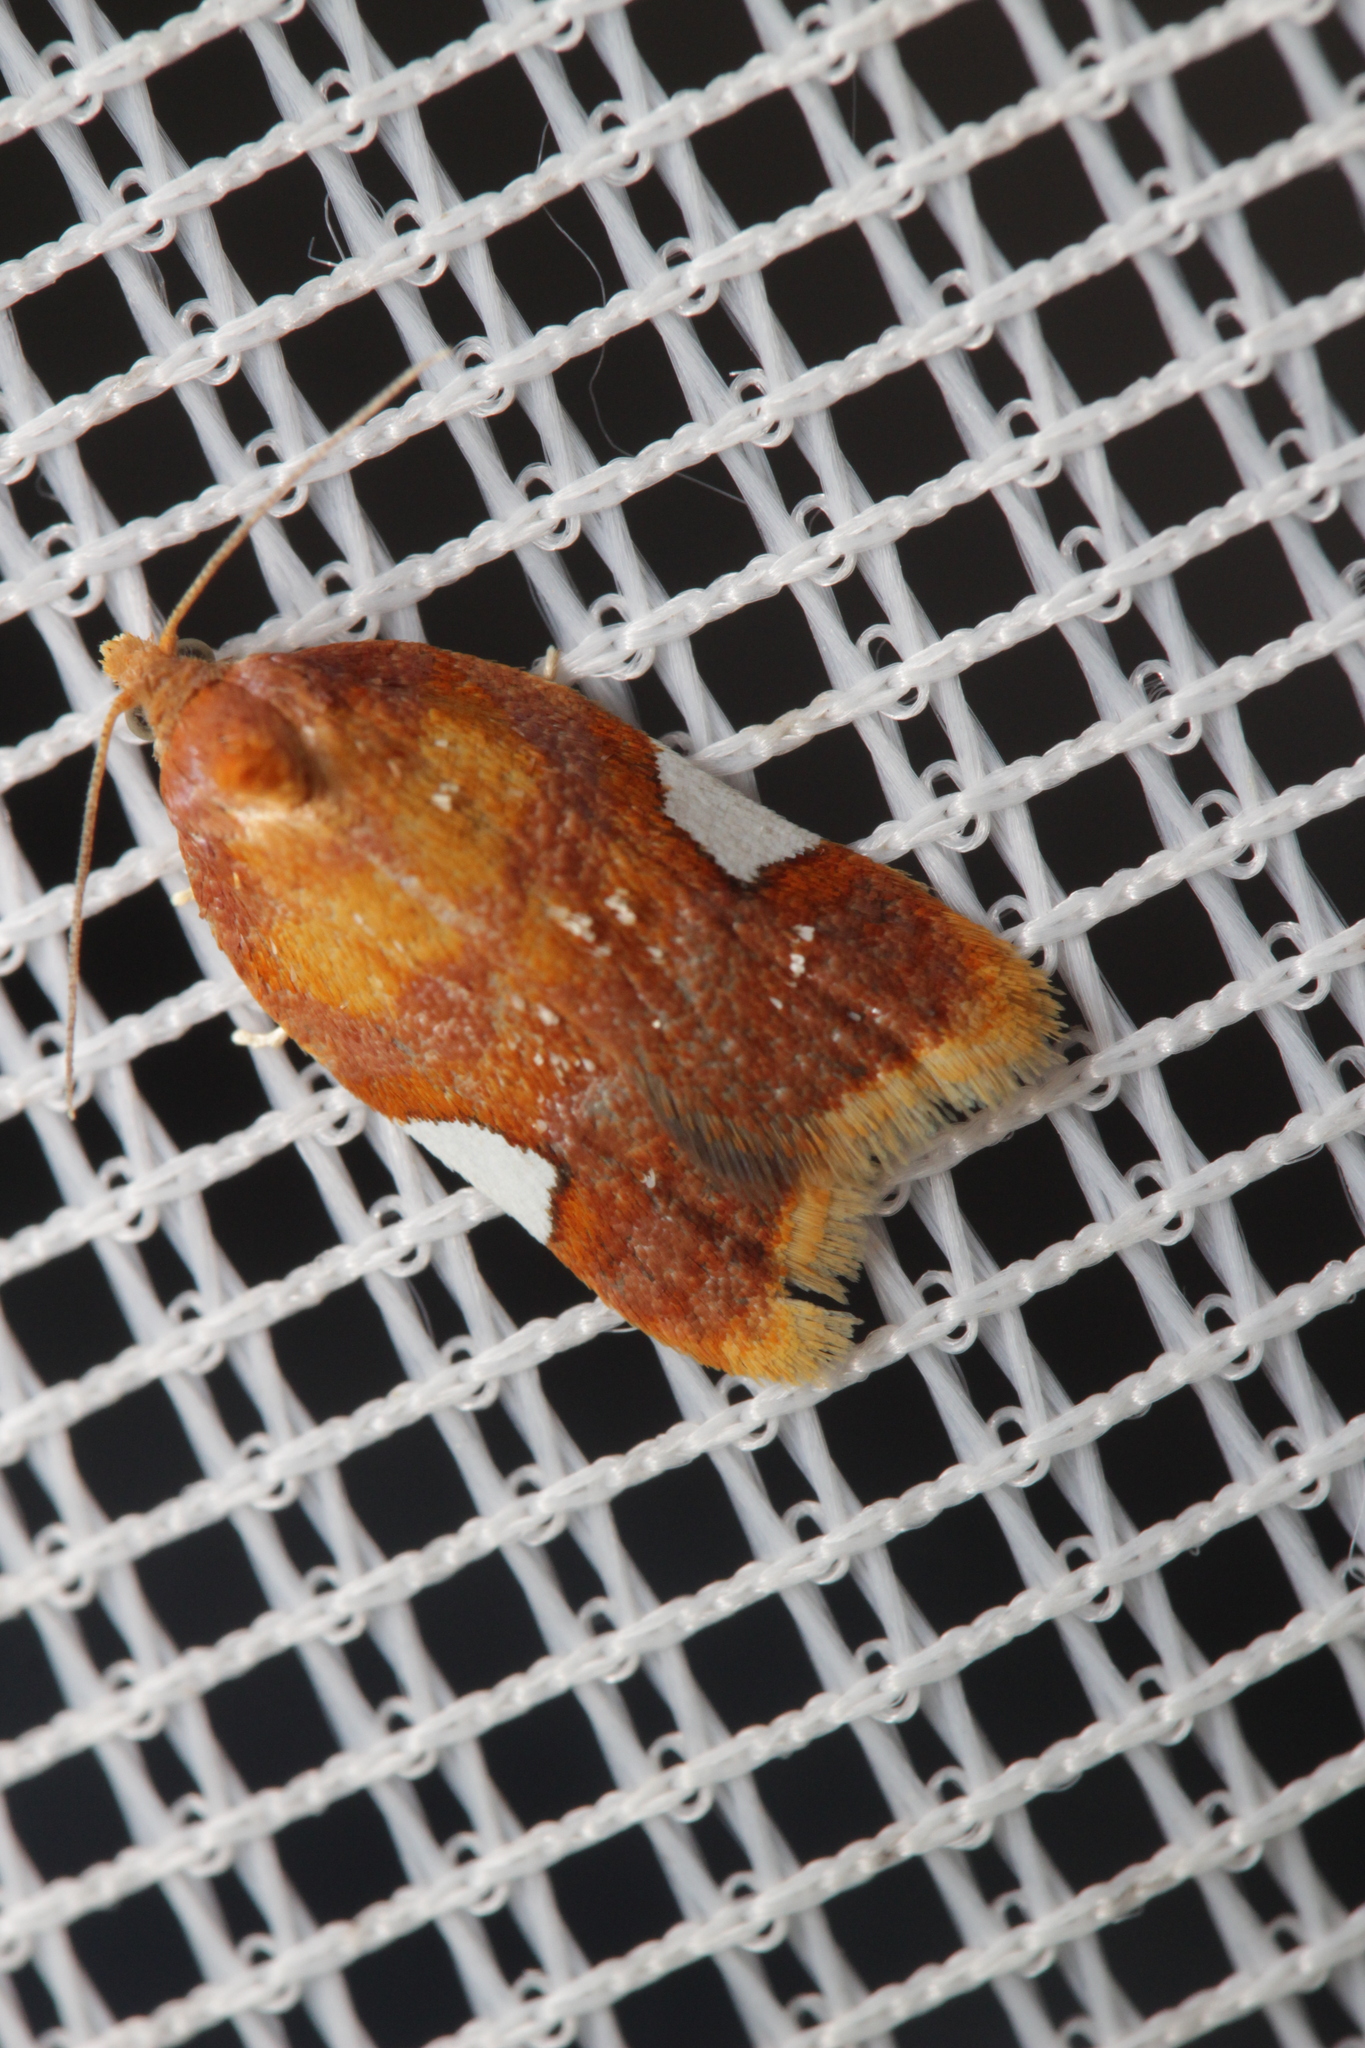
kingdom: Animalia
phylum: Arthropoda
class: Insecta
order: Lepidoptera
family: Tortricidae
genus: Acleris
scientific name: Acleris holmiana
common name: Golden leafroller moth
